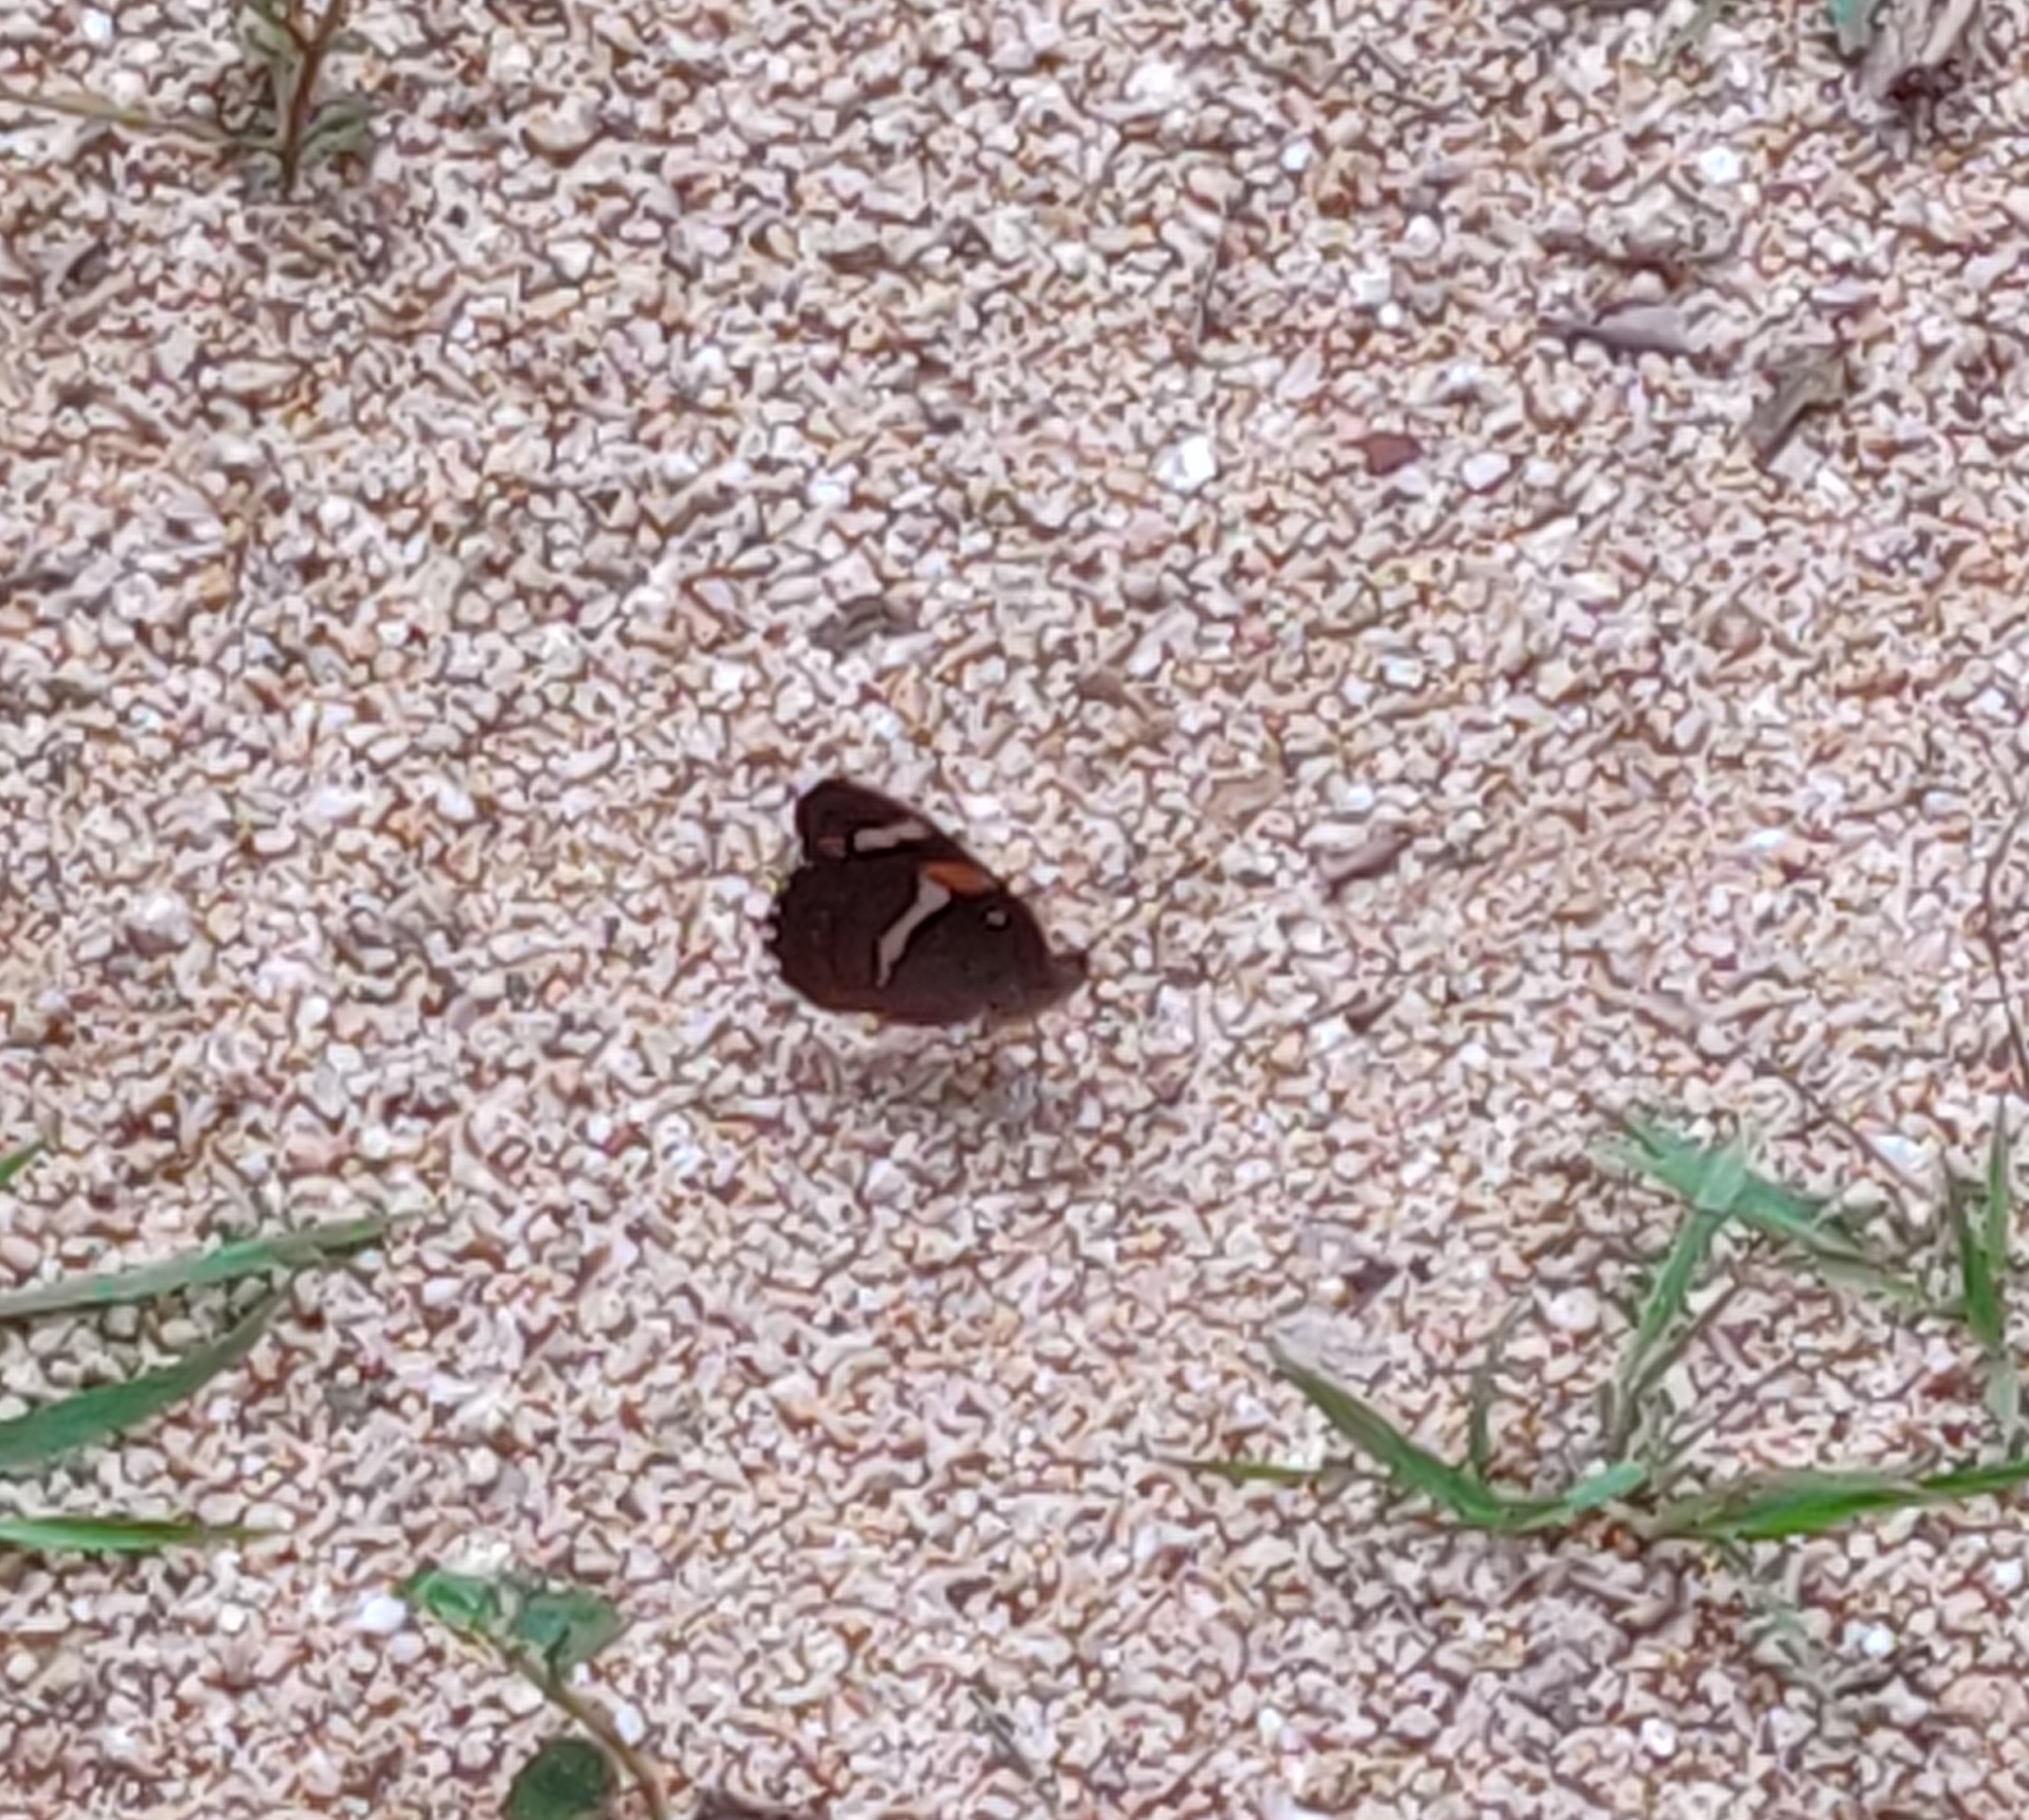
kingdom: Animalia
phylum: Arthropoda
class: Insecta
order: Lepidoptera
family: Nymphalidae
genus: Euthalia
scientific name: Euthalia nais
